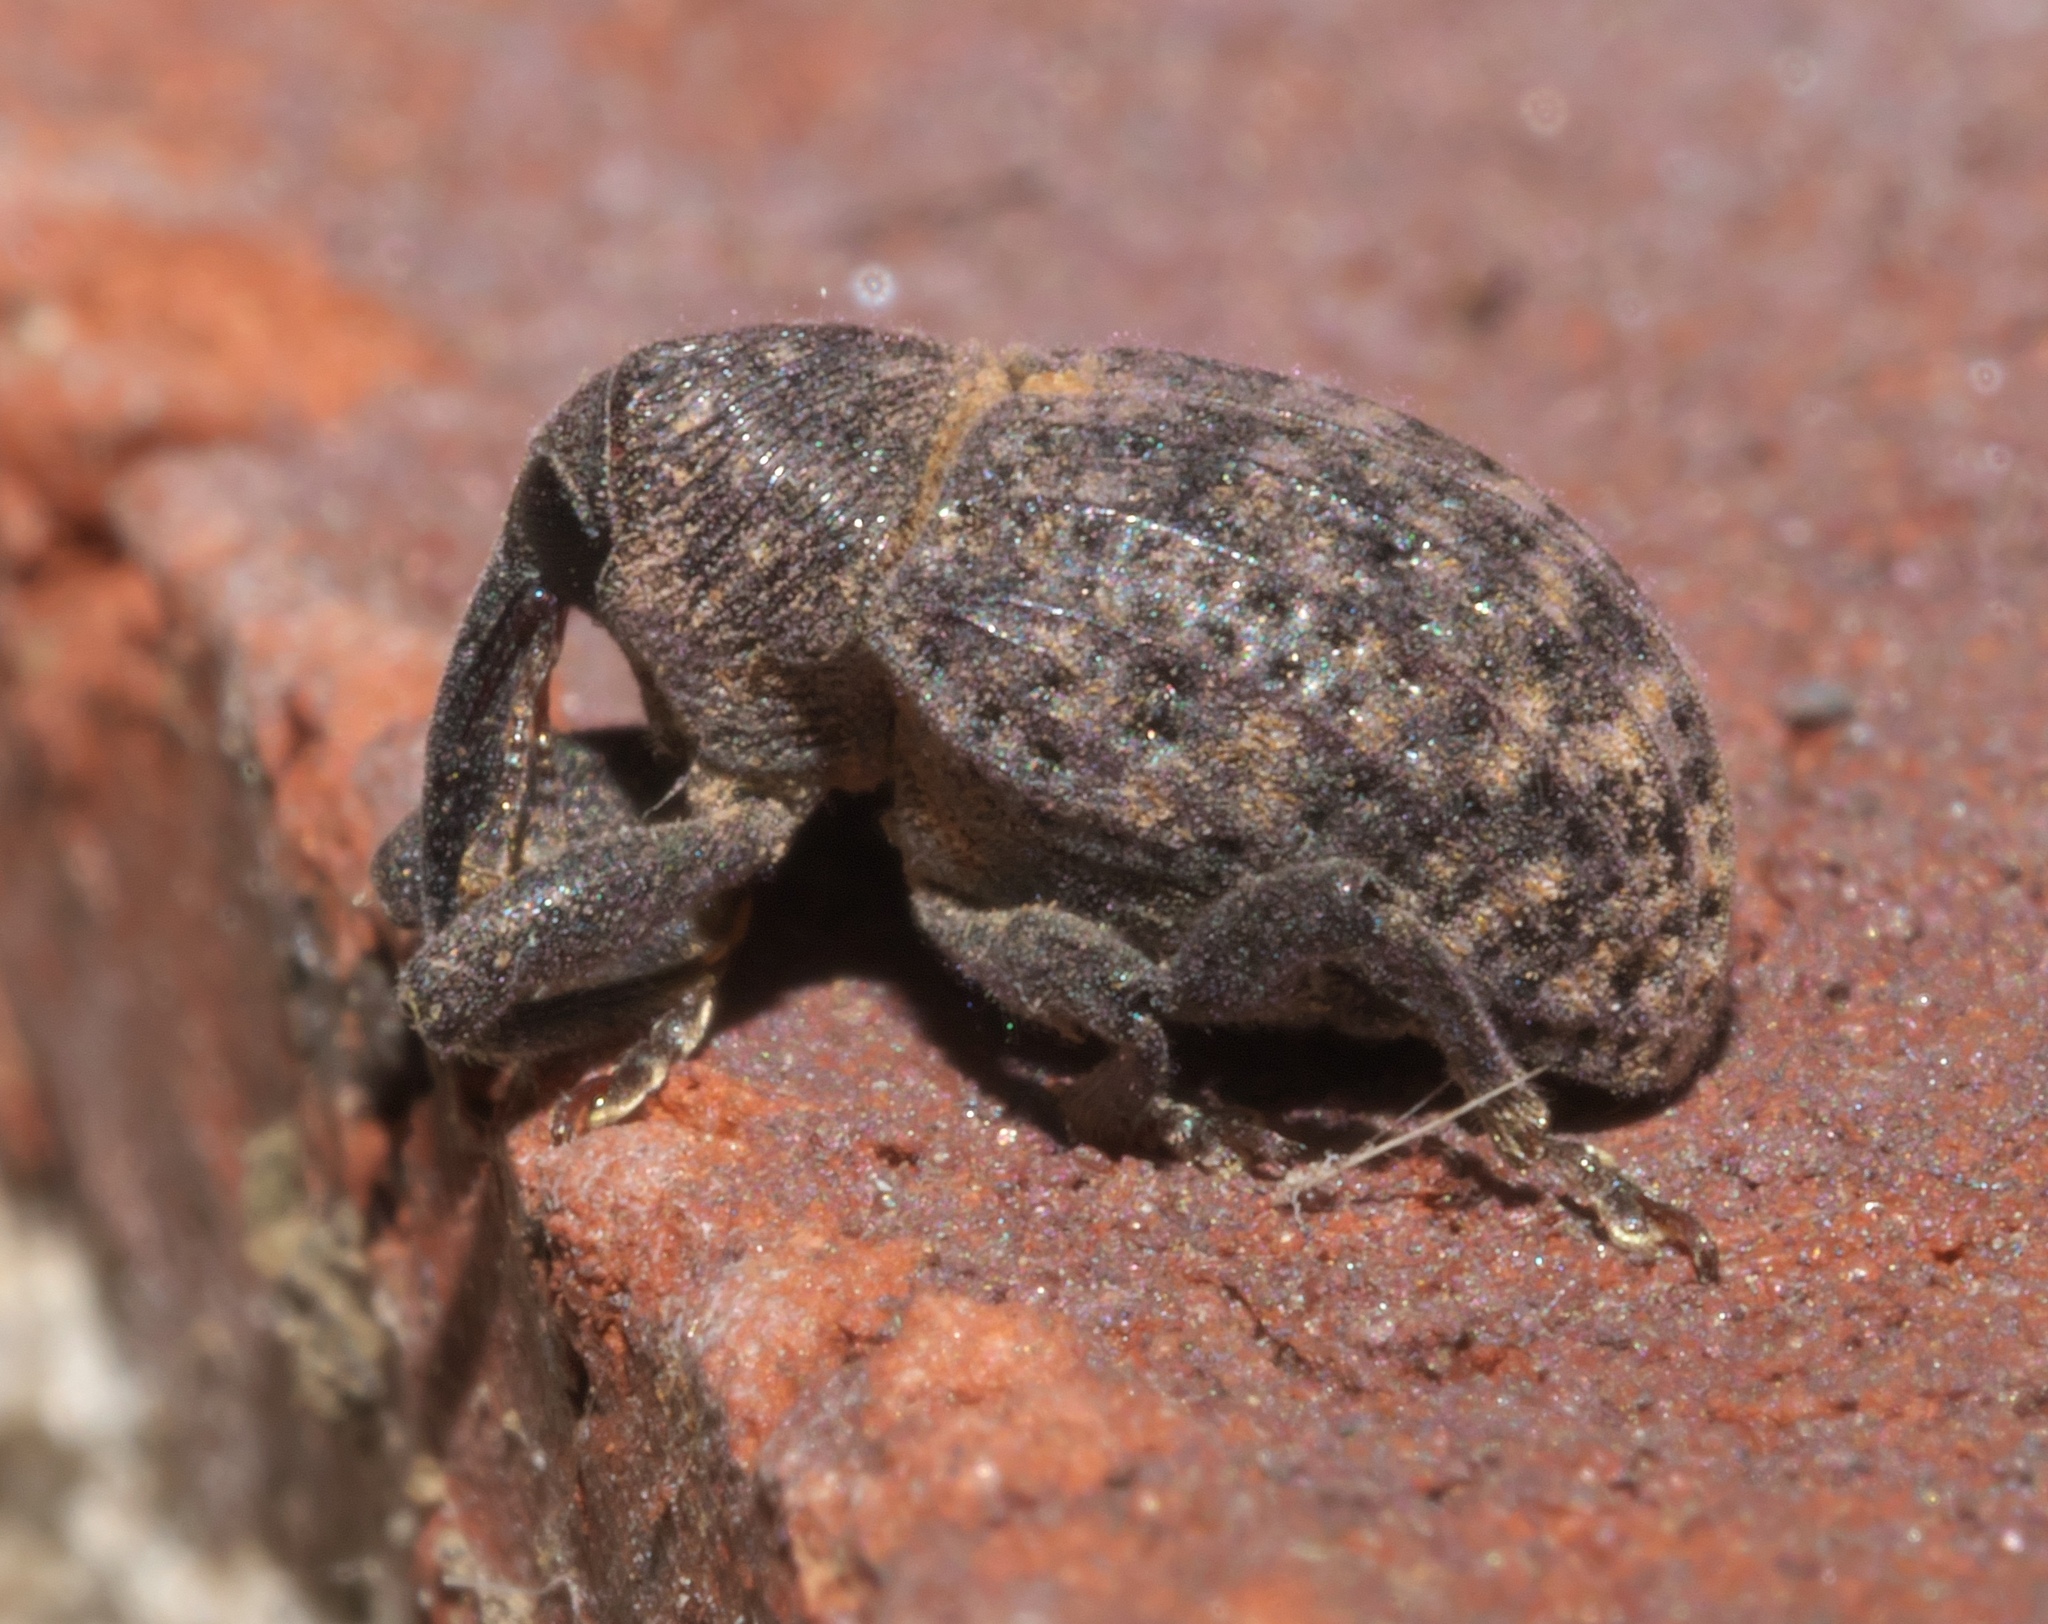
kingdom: Animalia
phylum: Arthropoda
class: Insecta
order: Coleoptera
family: Curculionidae
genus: Rhyssomatus
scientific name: Rhyssomatus palmacollis
